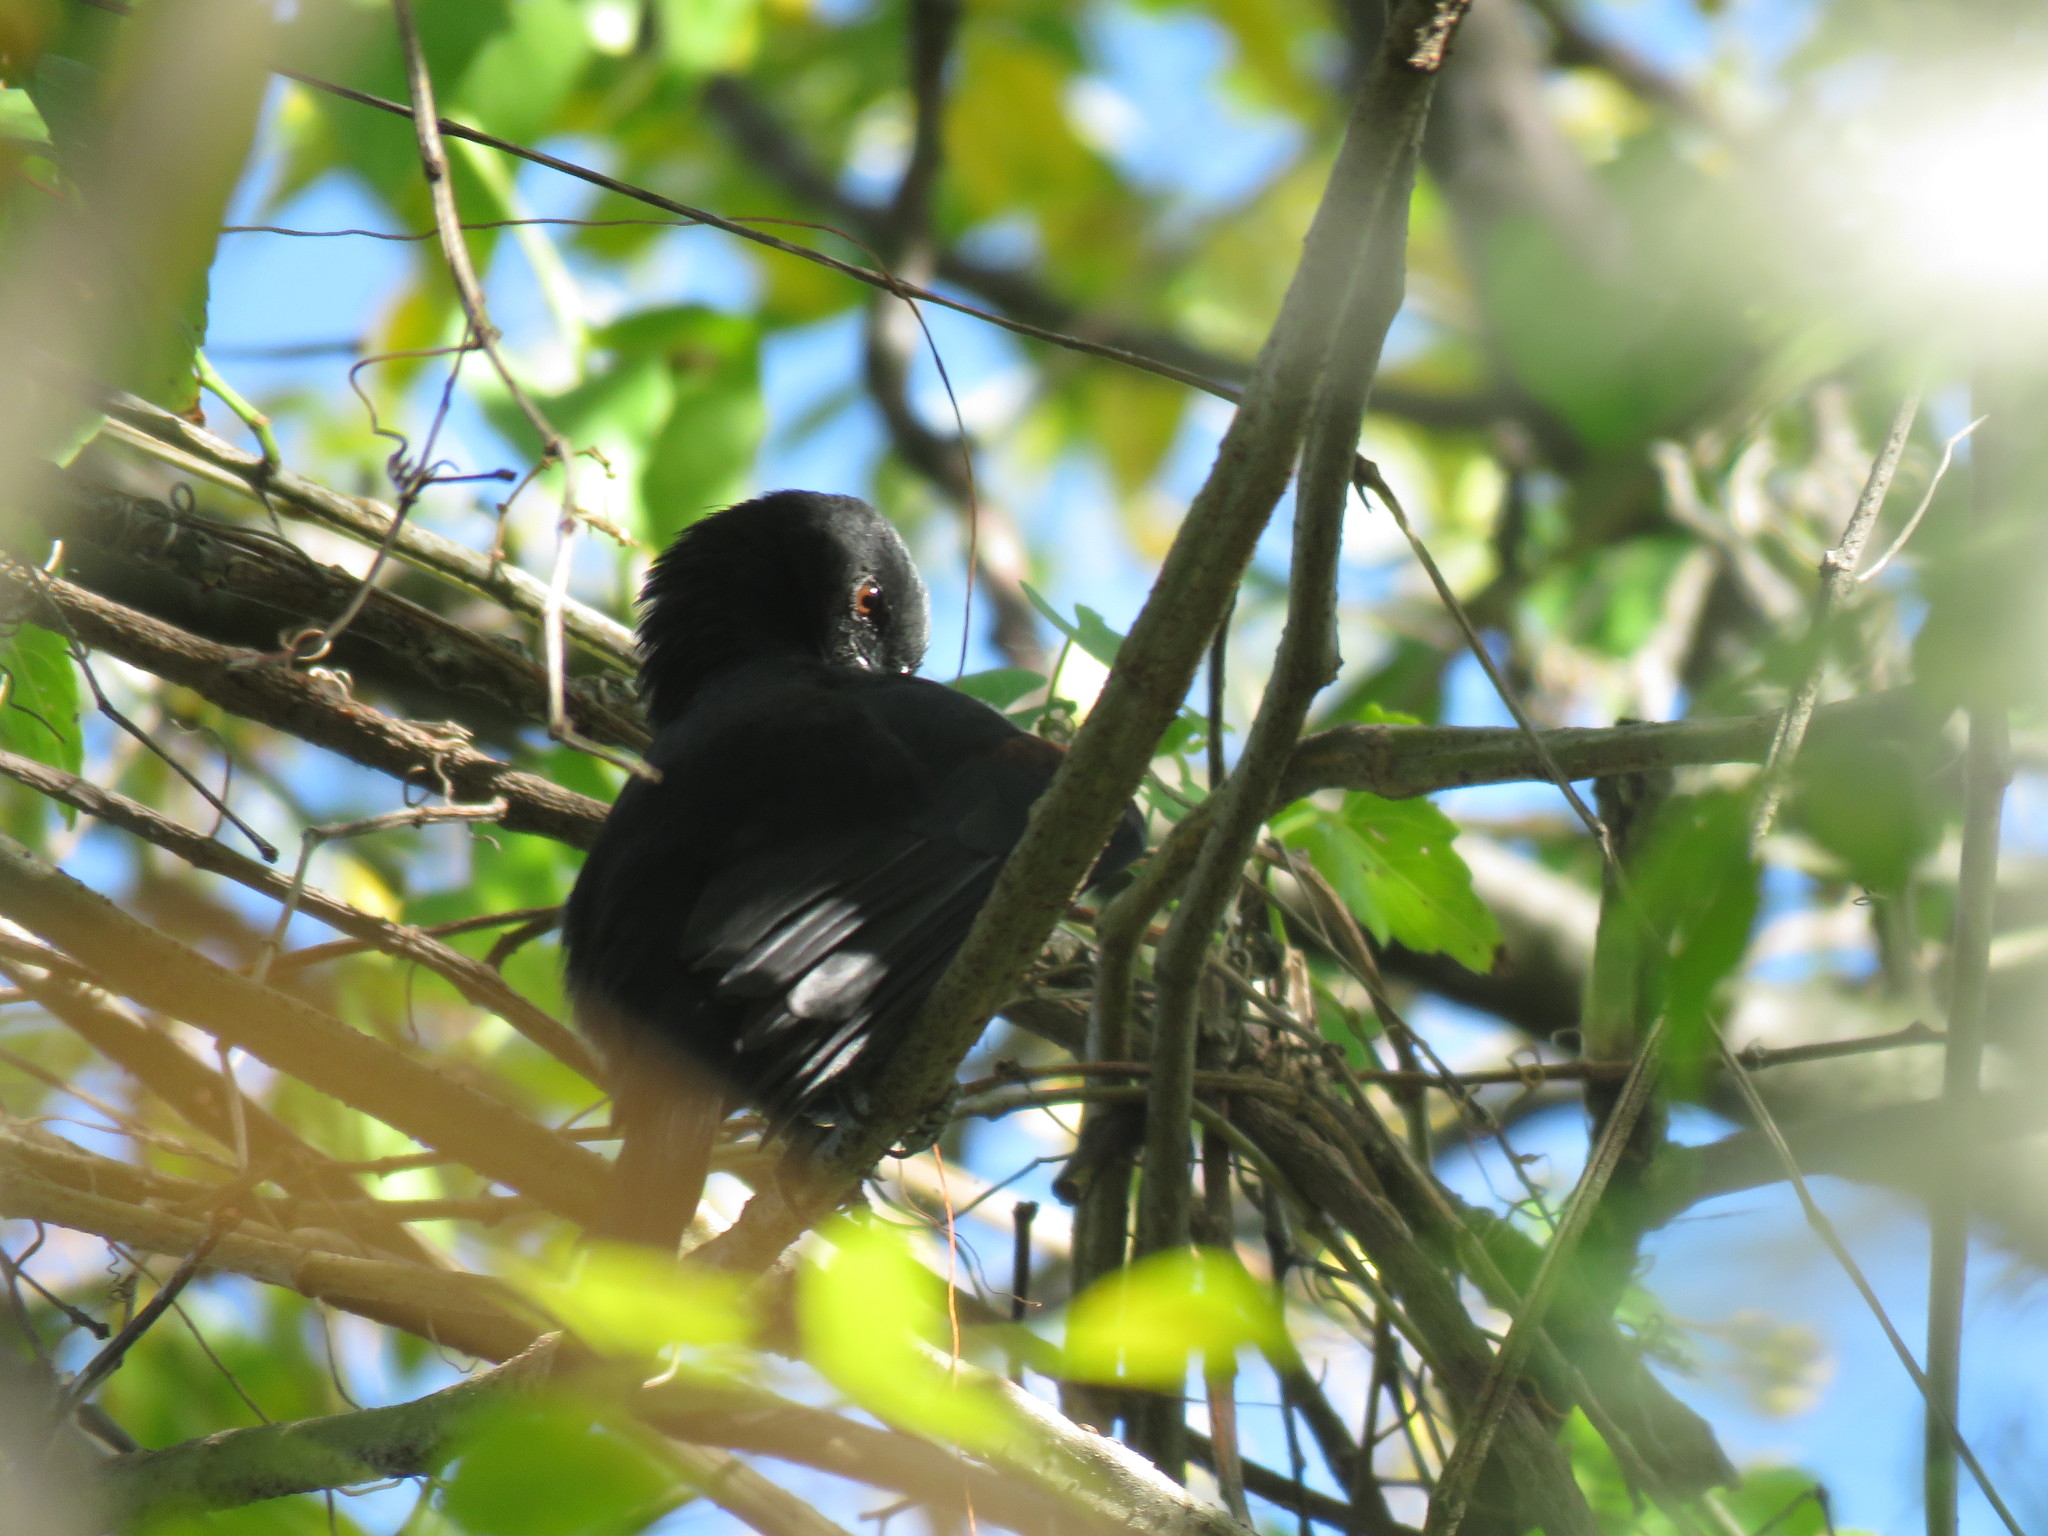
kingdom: Animalia
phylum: Chordata
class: Aves
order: Passeriformes
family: Icteridae
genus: Icterus
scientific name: Icterus cayanensis
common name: Epaulet oriole
